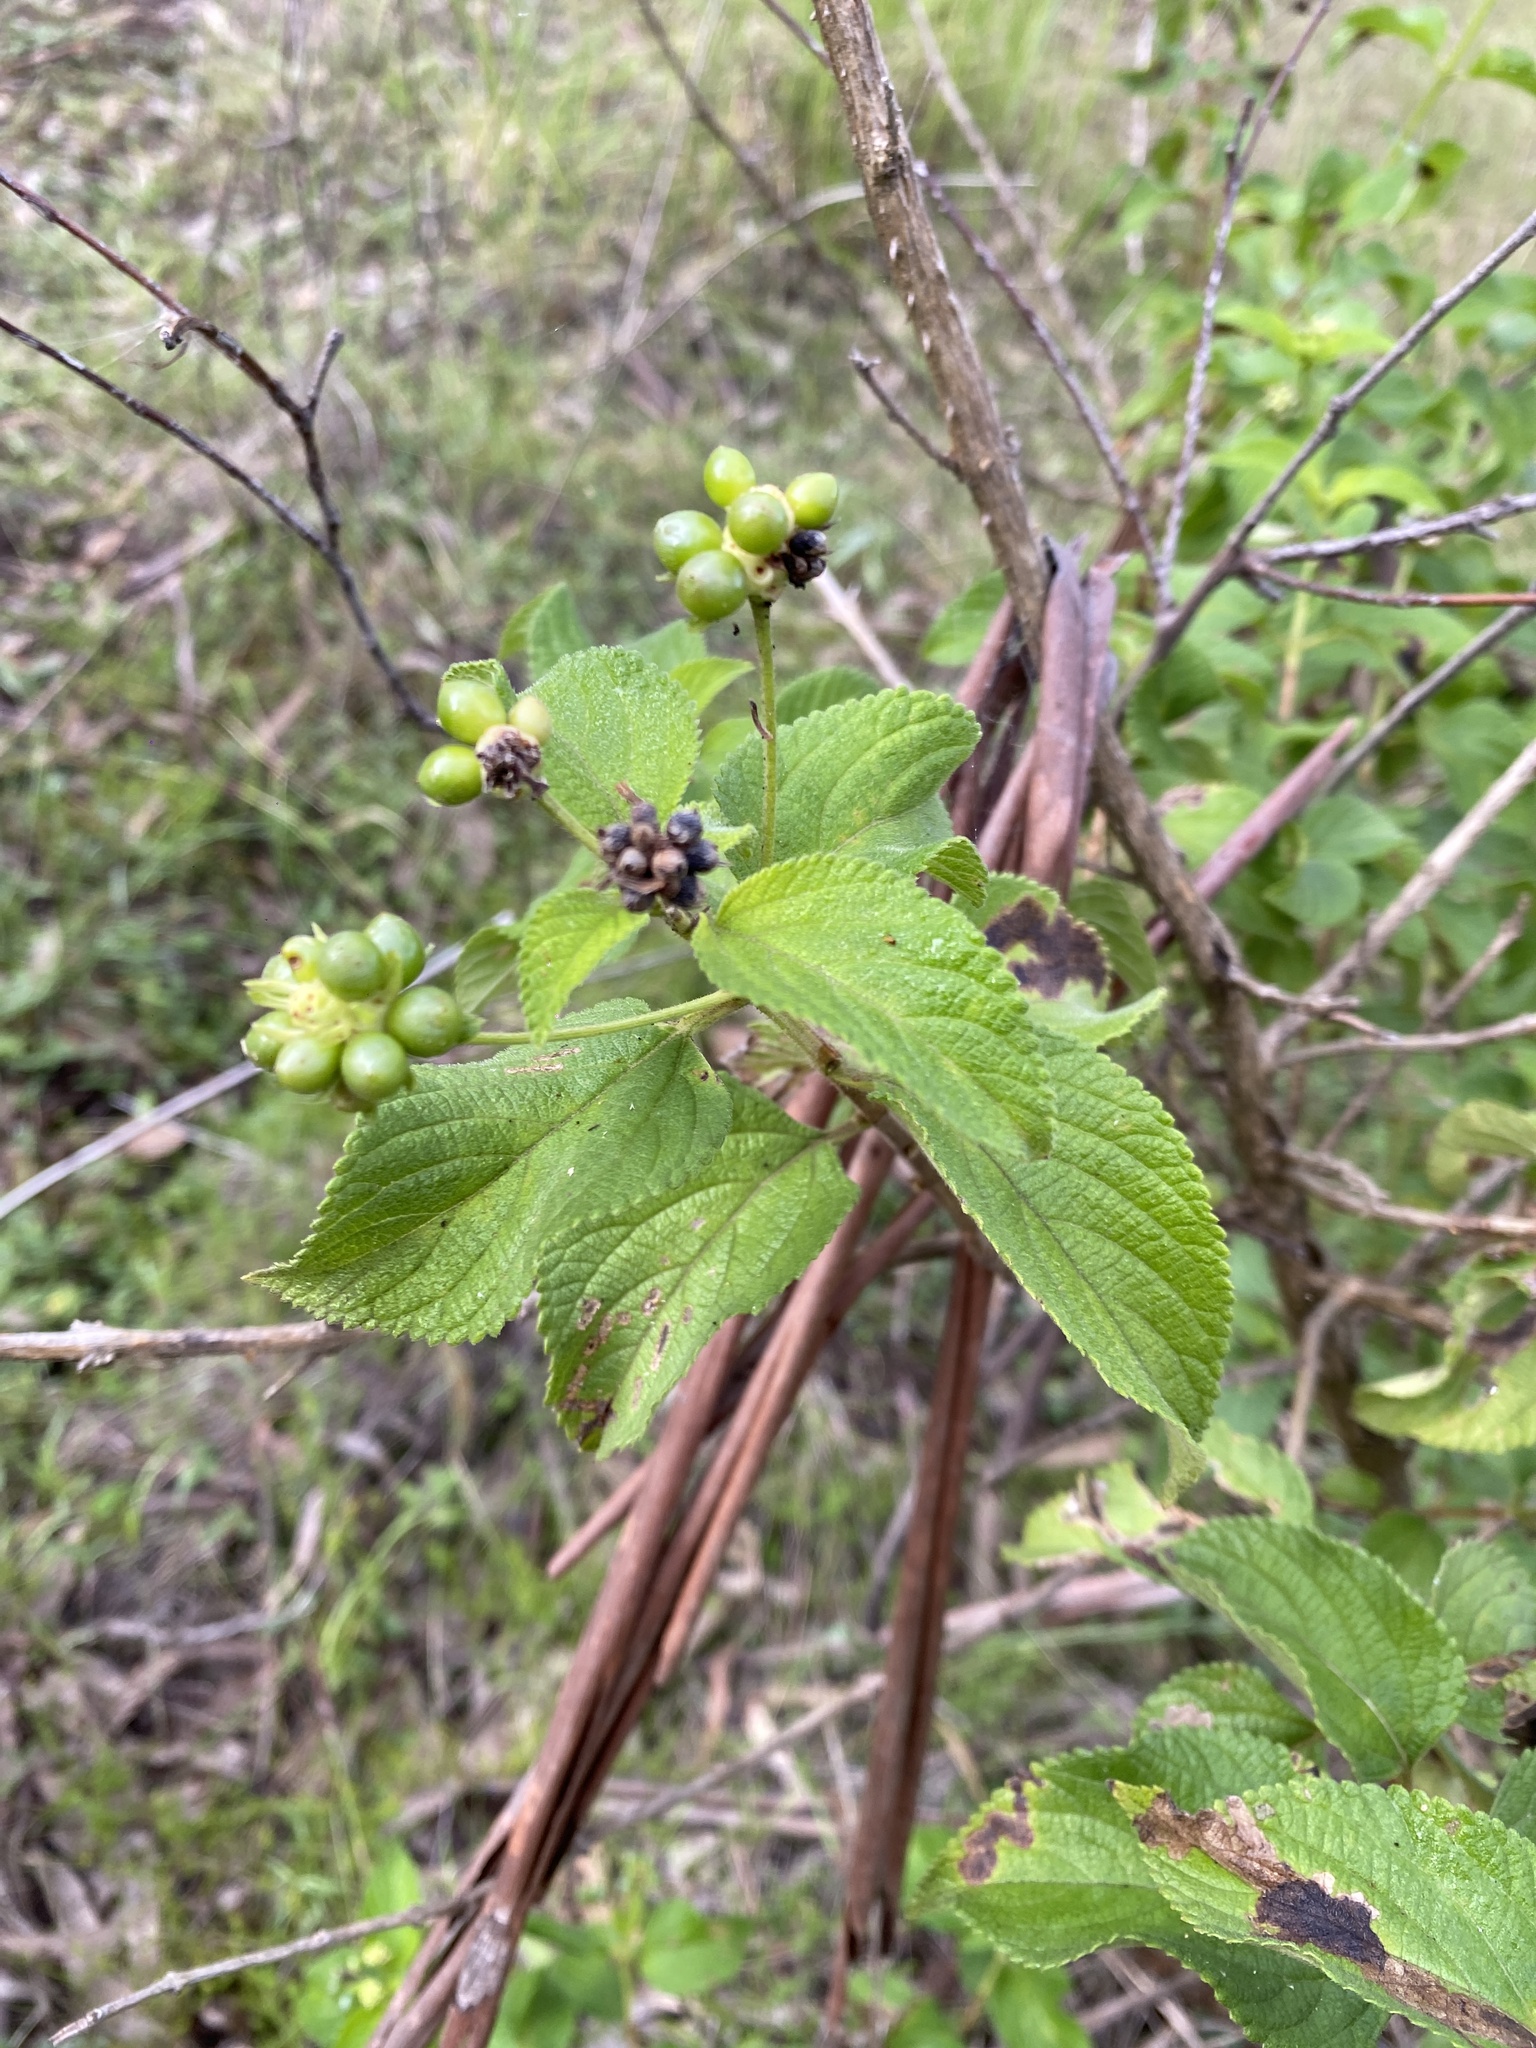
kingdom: Plantae
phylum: Tracheophyta
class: Magnoliopsida
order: Lamiales
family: Verbenaceae
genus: Lantana
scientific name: Lantana camara
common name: Lantana
